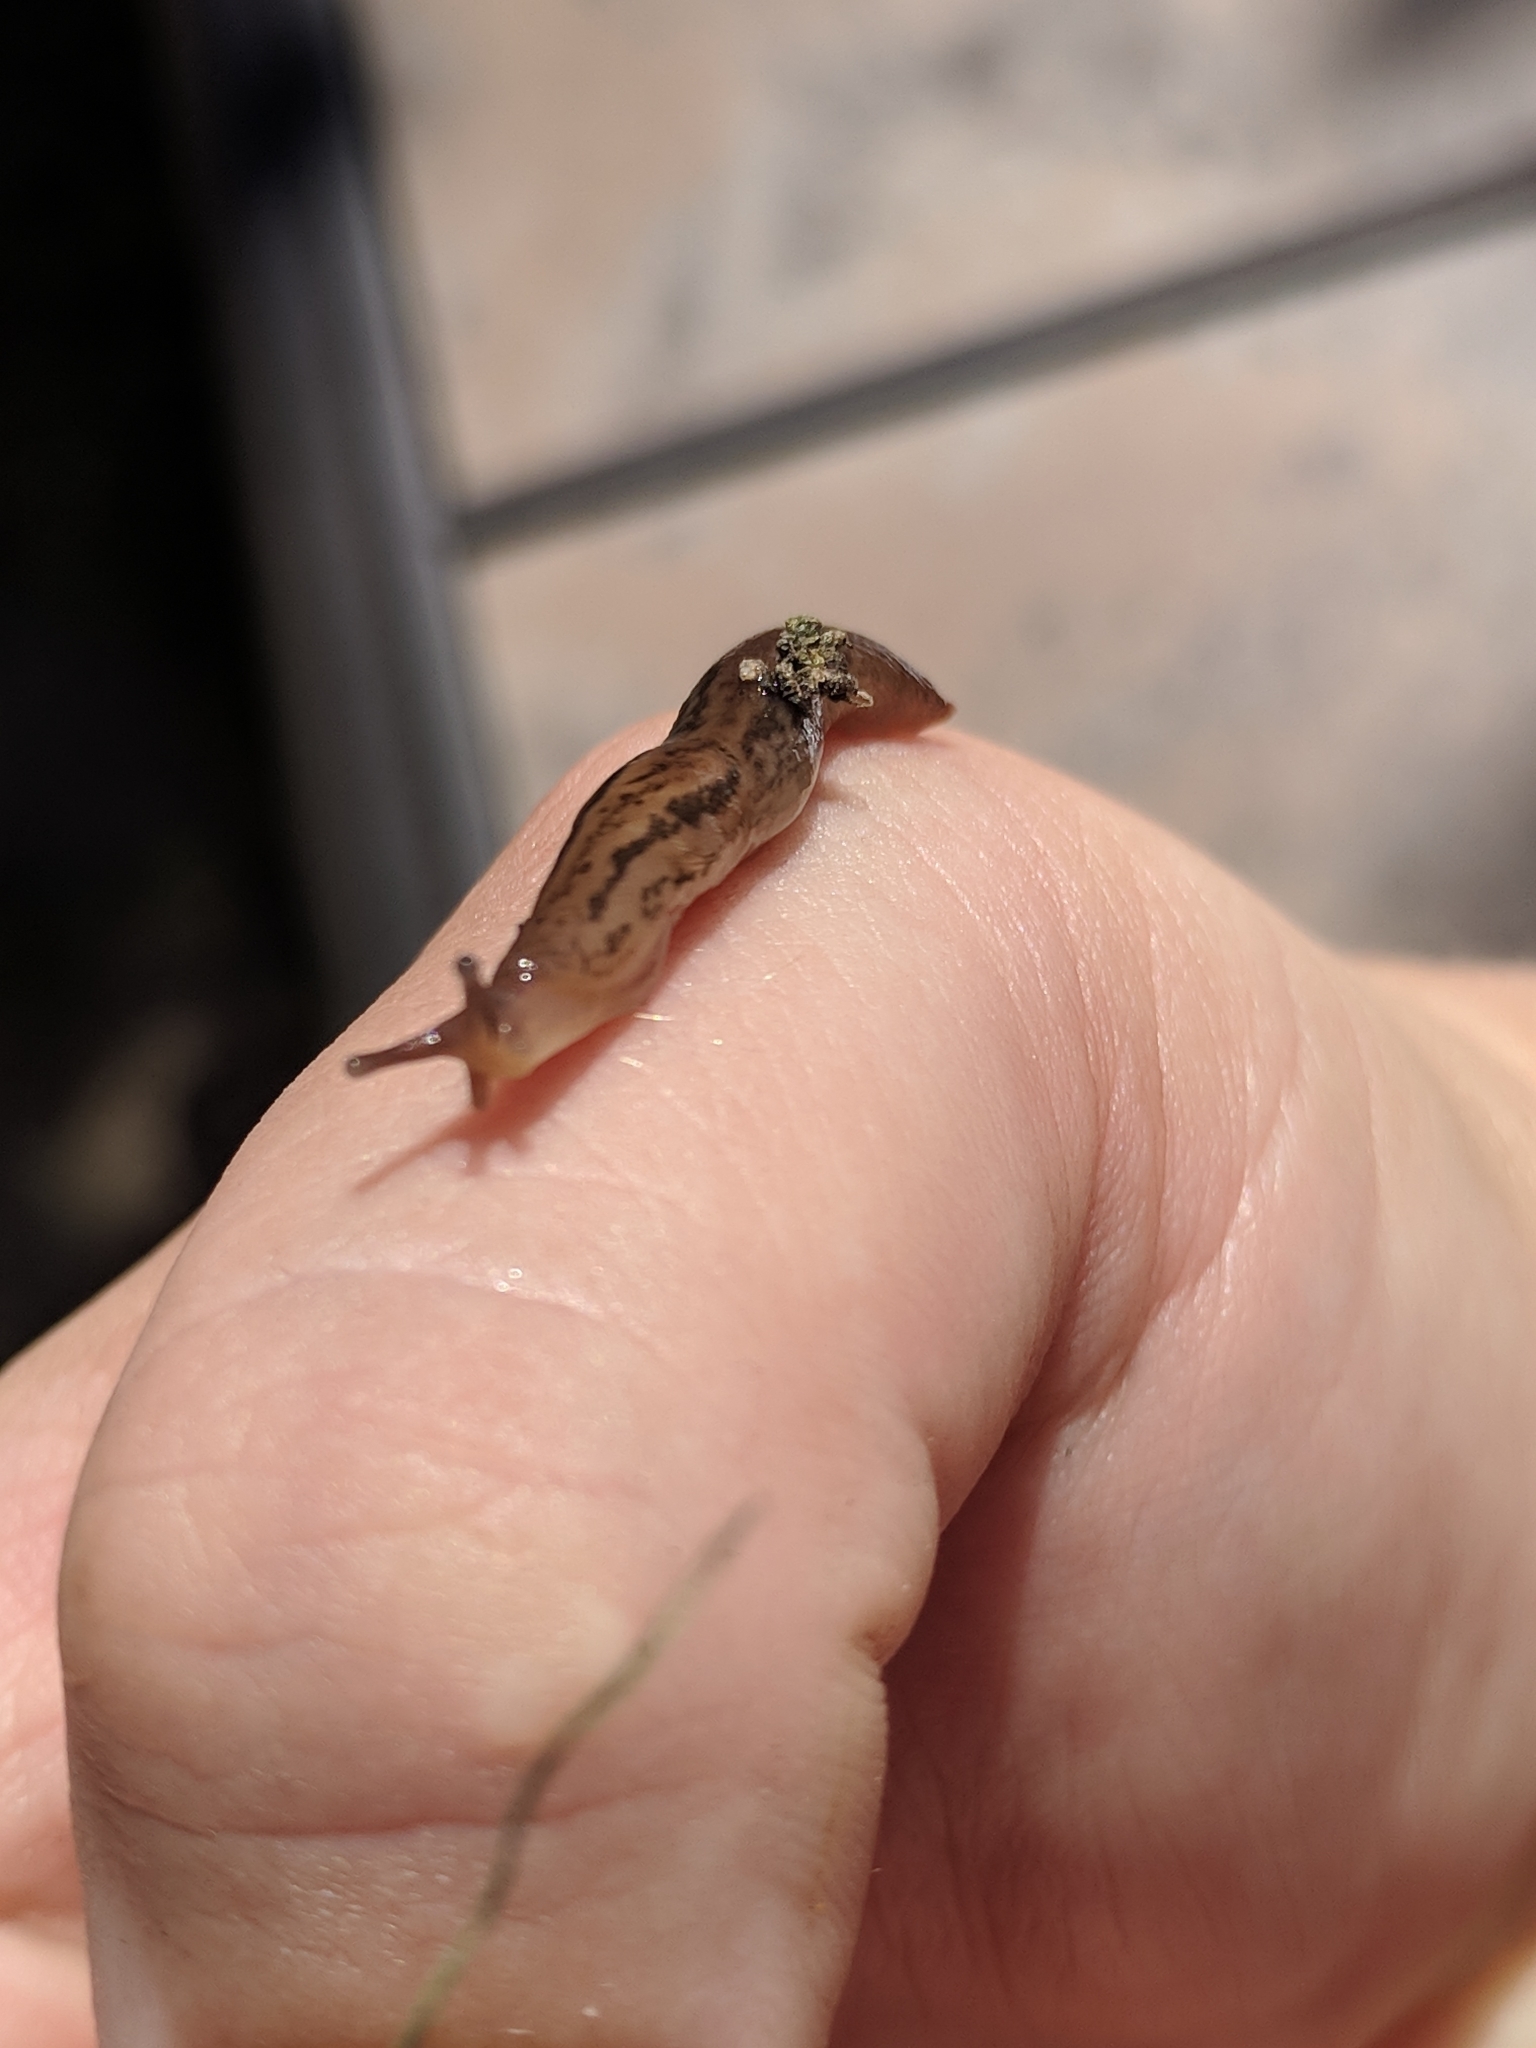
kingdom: Animalia
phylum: Mollusca
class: Gastropoda
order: Stylommatophora
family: Limacidae
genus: Ambigolimax
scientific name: Ambigolimax
